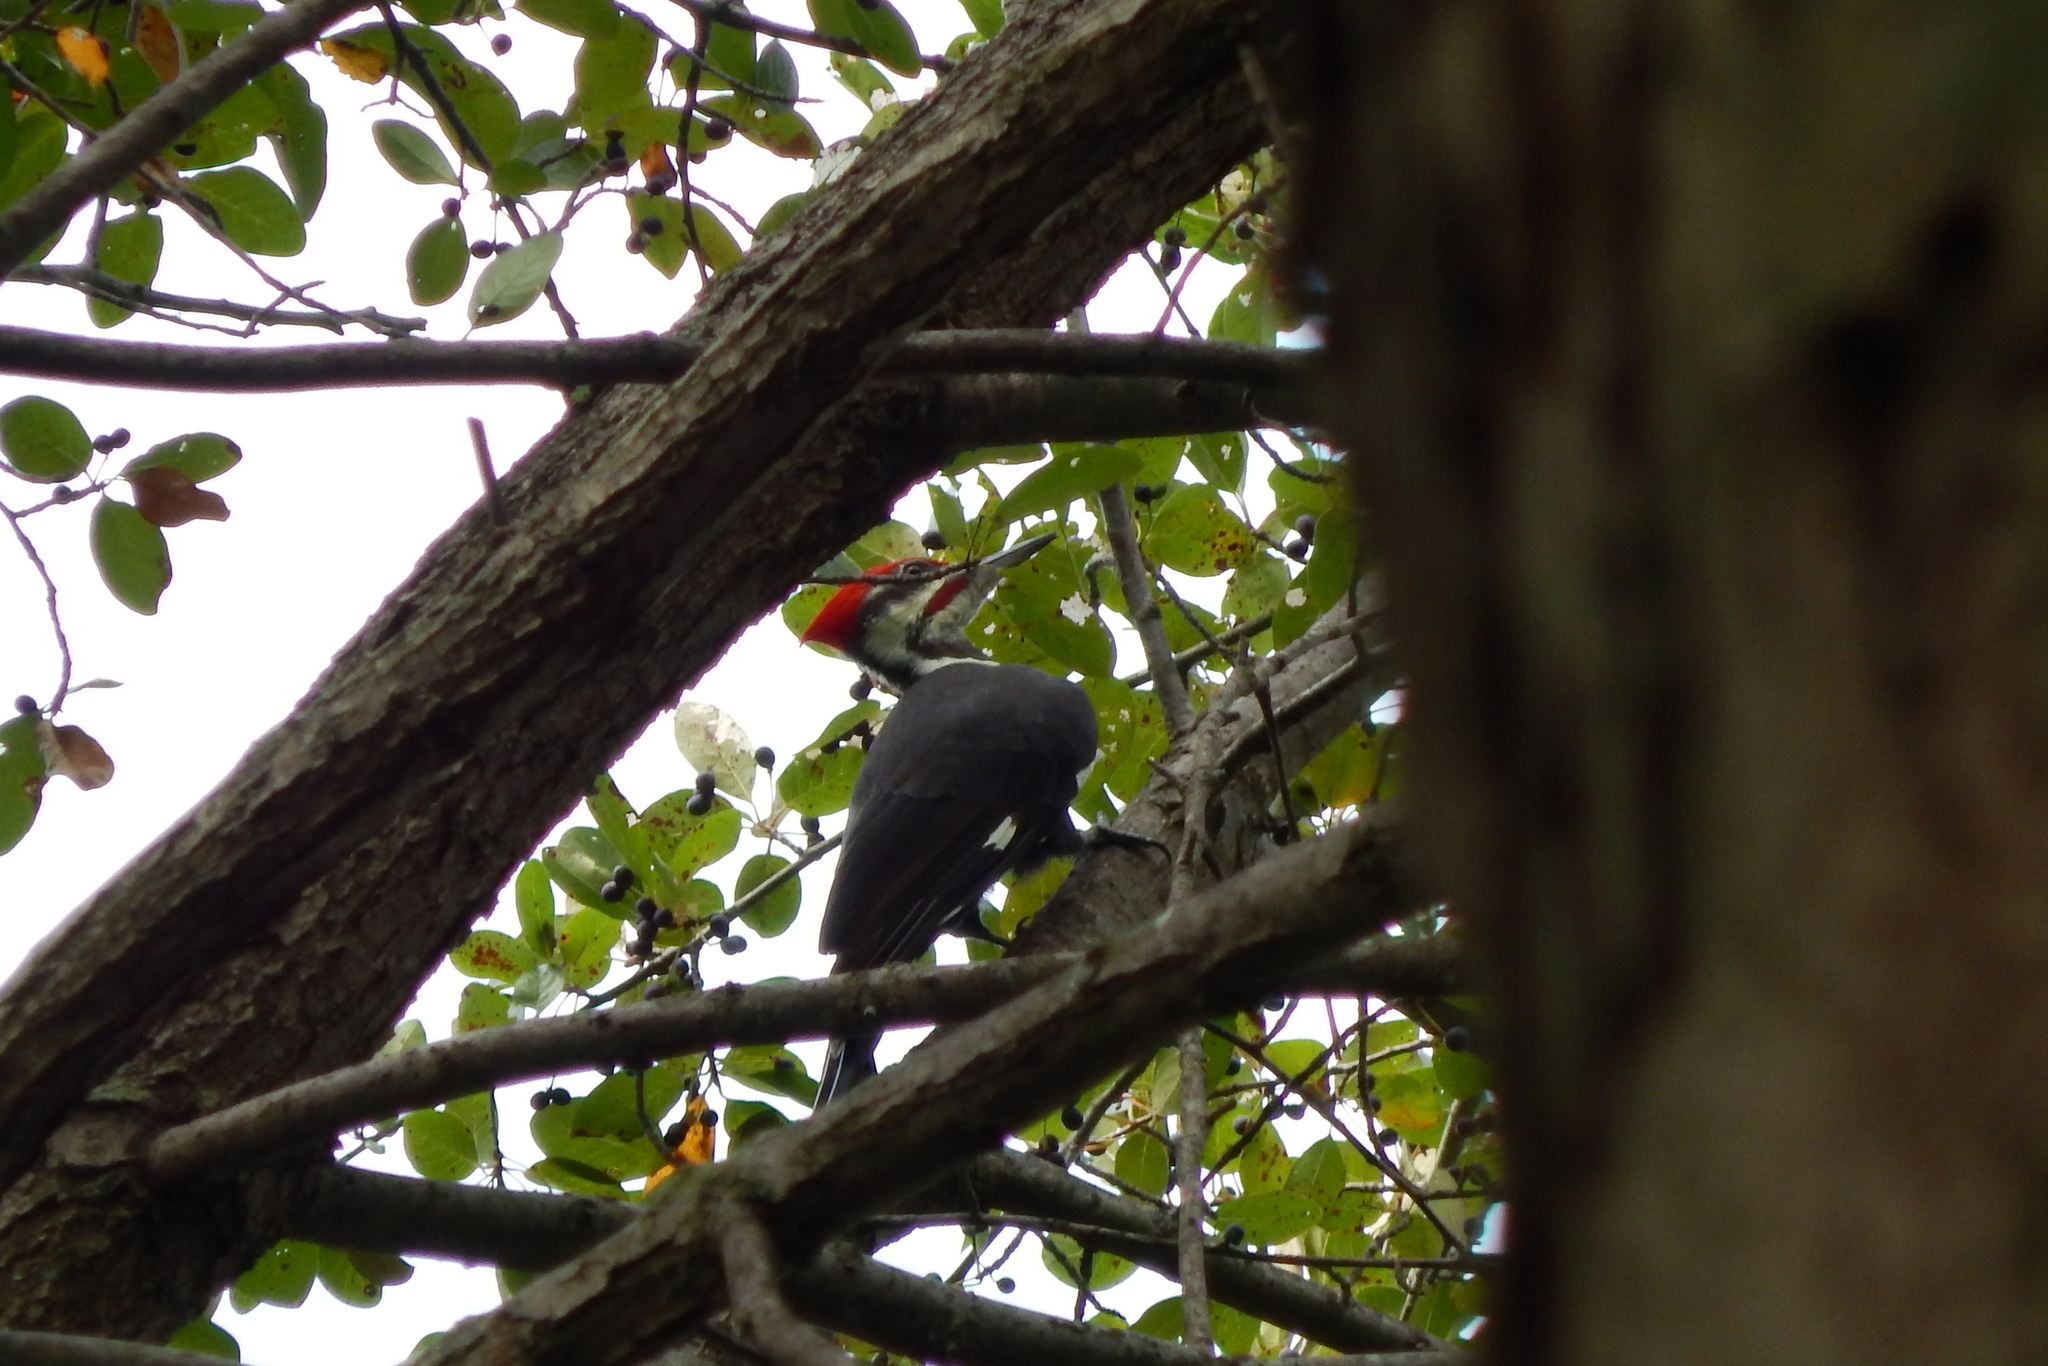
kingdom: Animalia
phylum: Chordata
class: Aves
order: Piciformes
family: Picidae
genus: Dryocopus
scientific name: Dryocopus pileatus
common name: Pileated woodpecker
